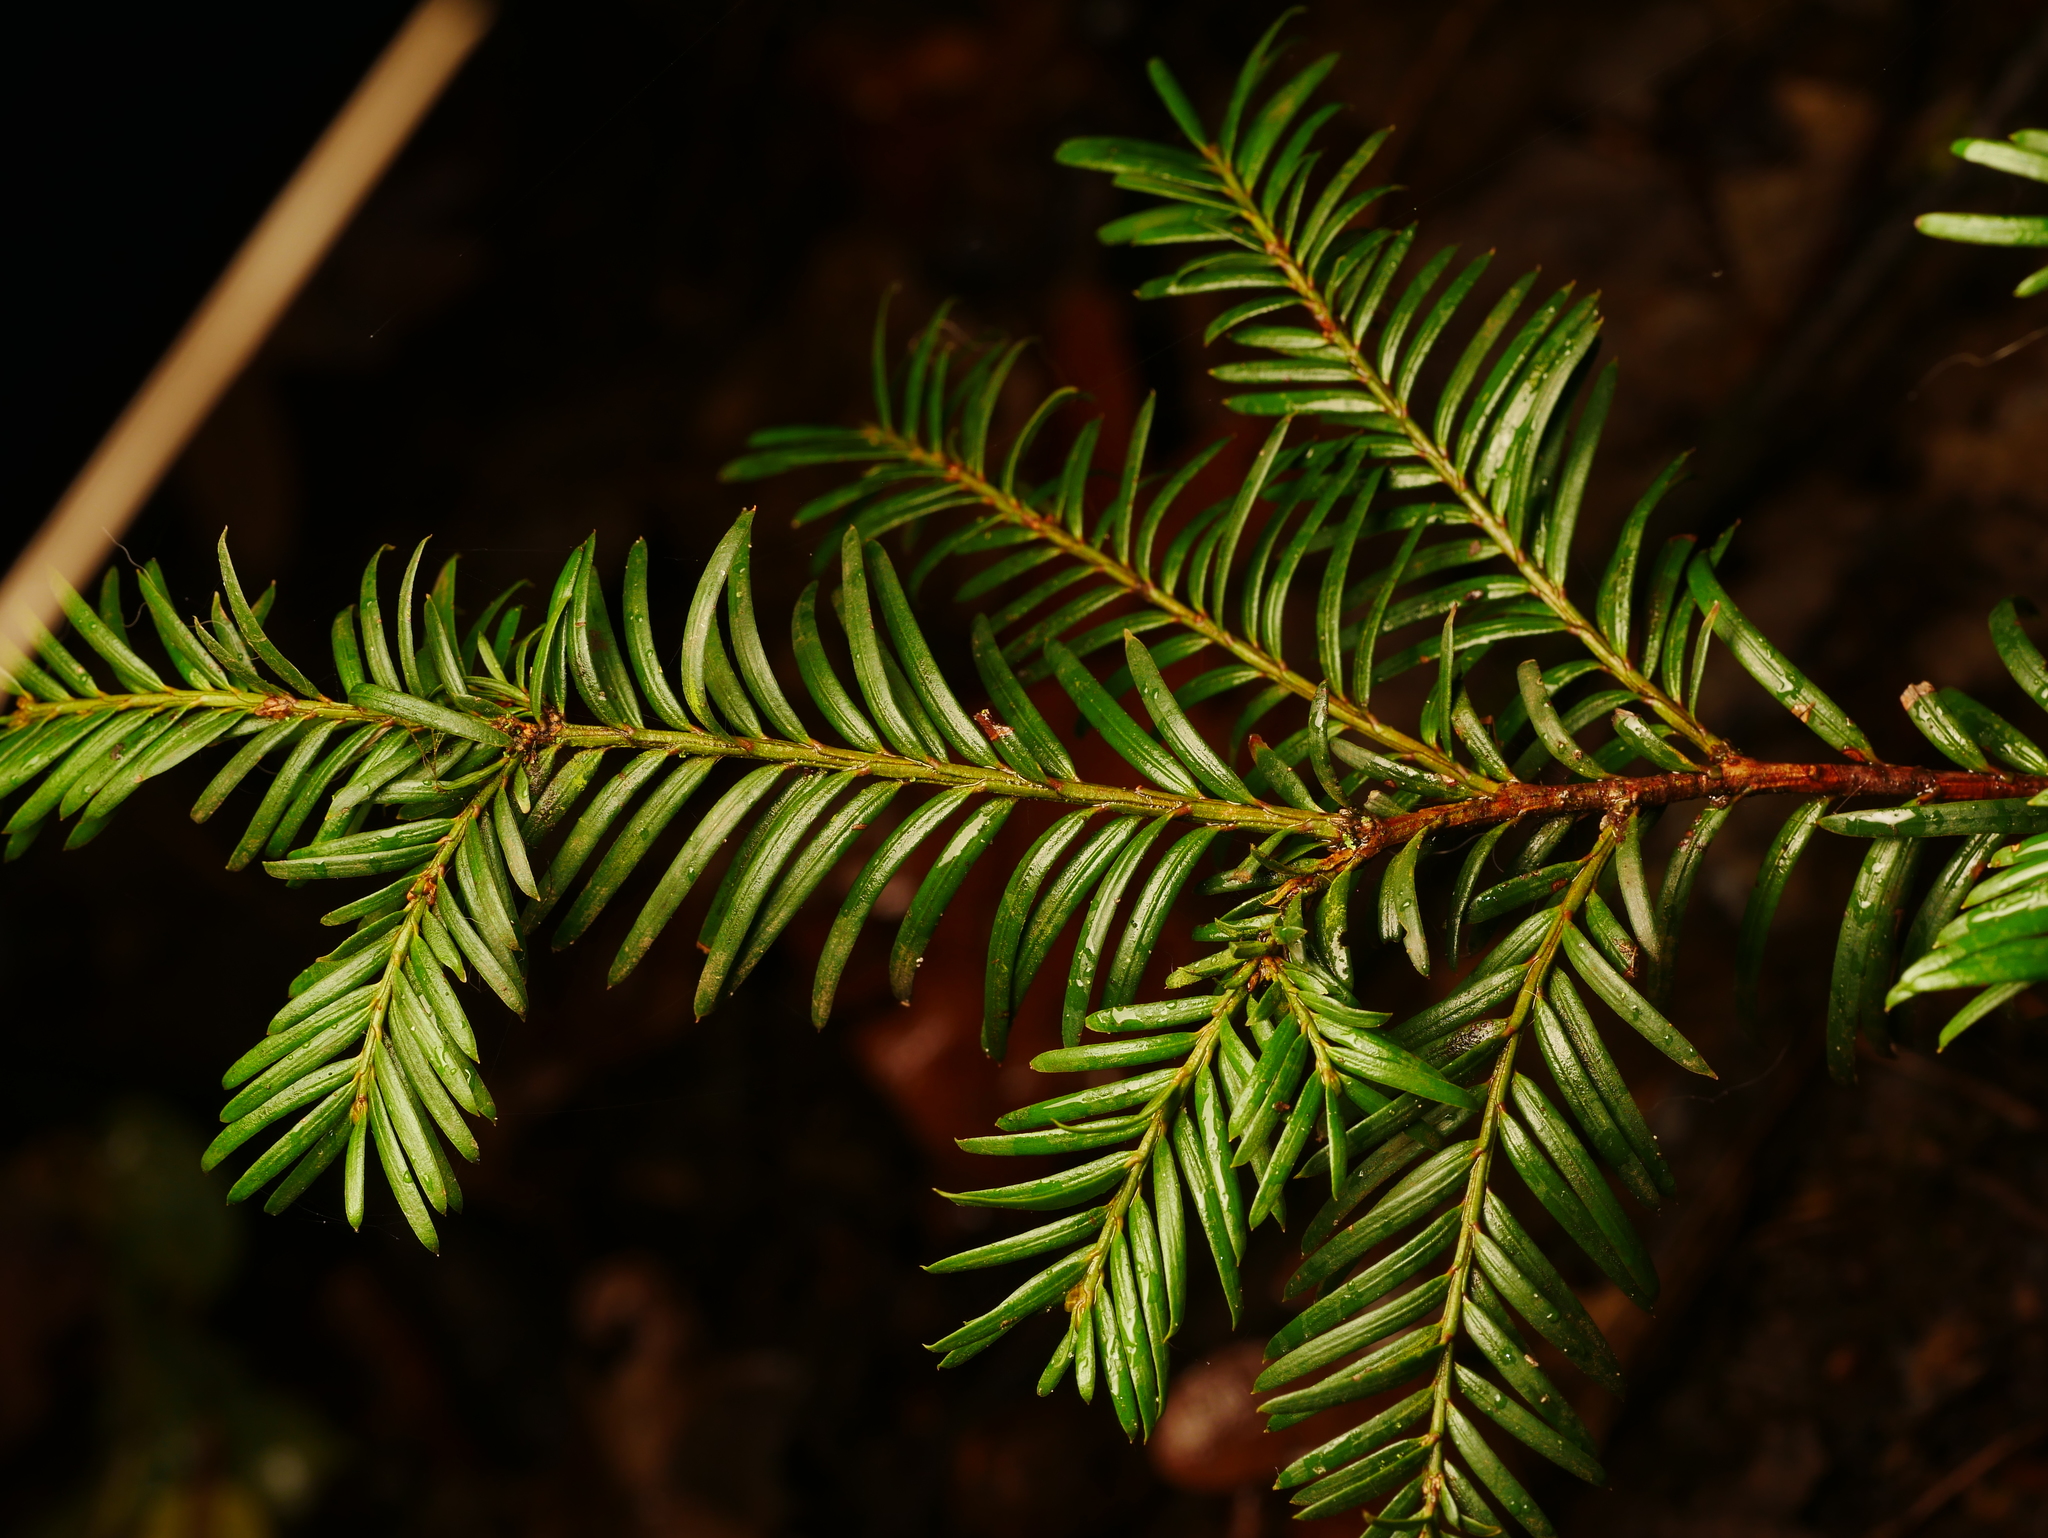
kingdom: Plantae
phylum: Tracheophyta
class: Pinopsida
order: Pinales
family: Taxaceae
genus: Taxus
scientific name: Taxus baccata
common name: Yew
